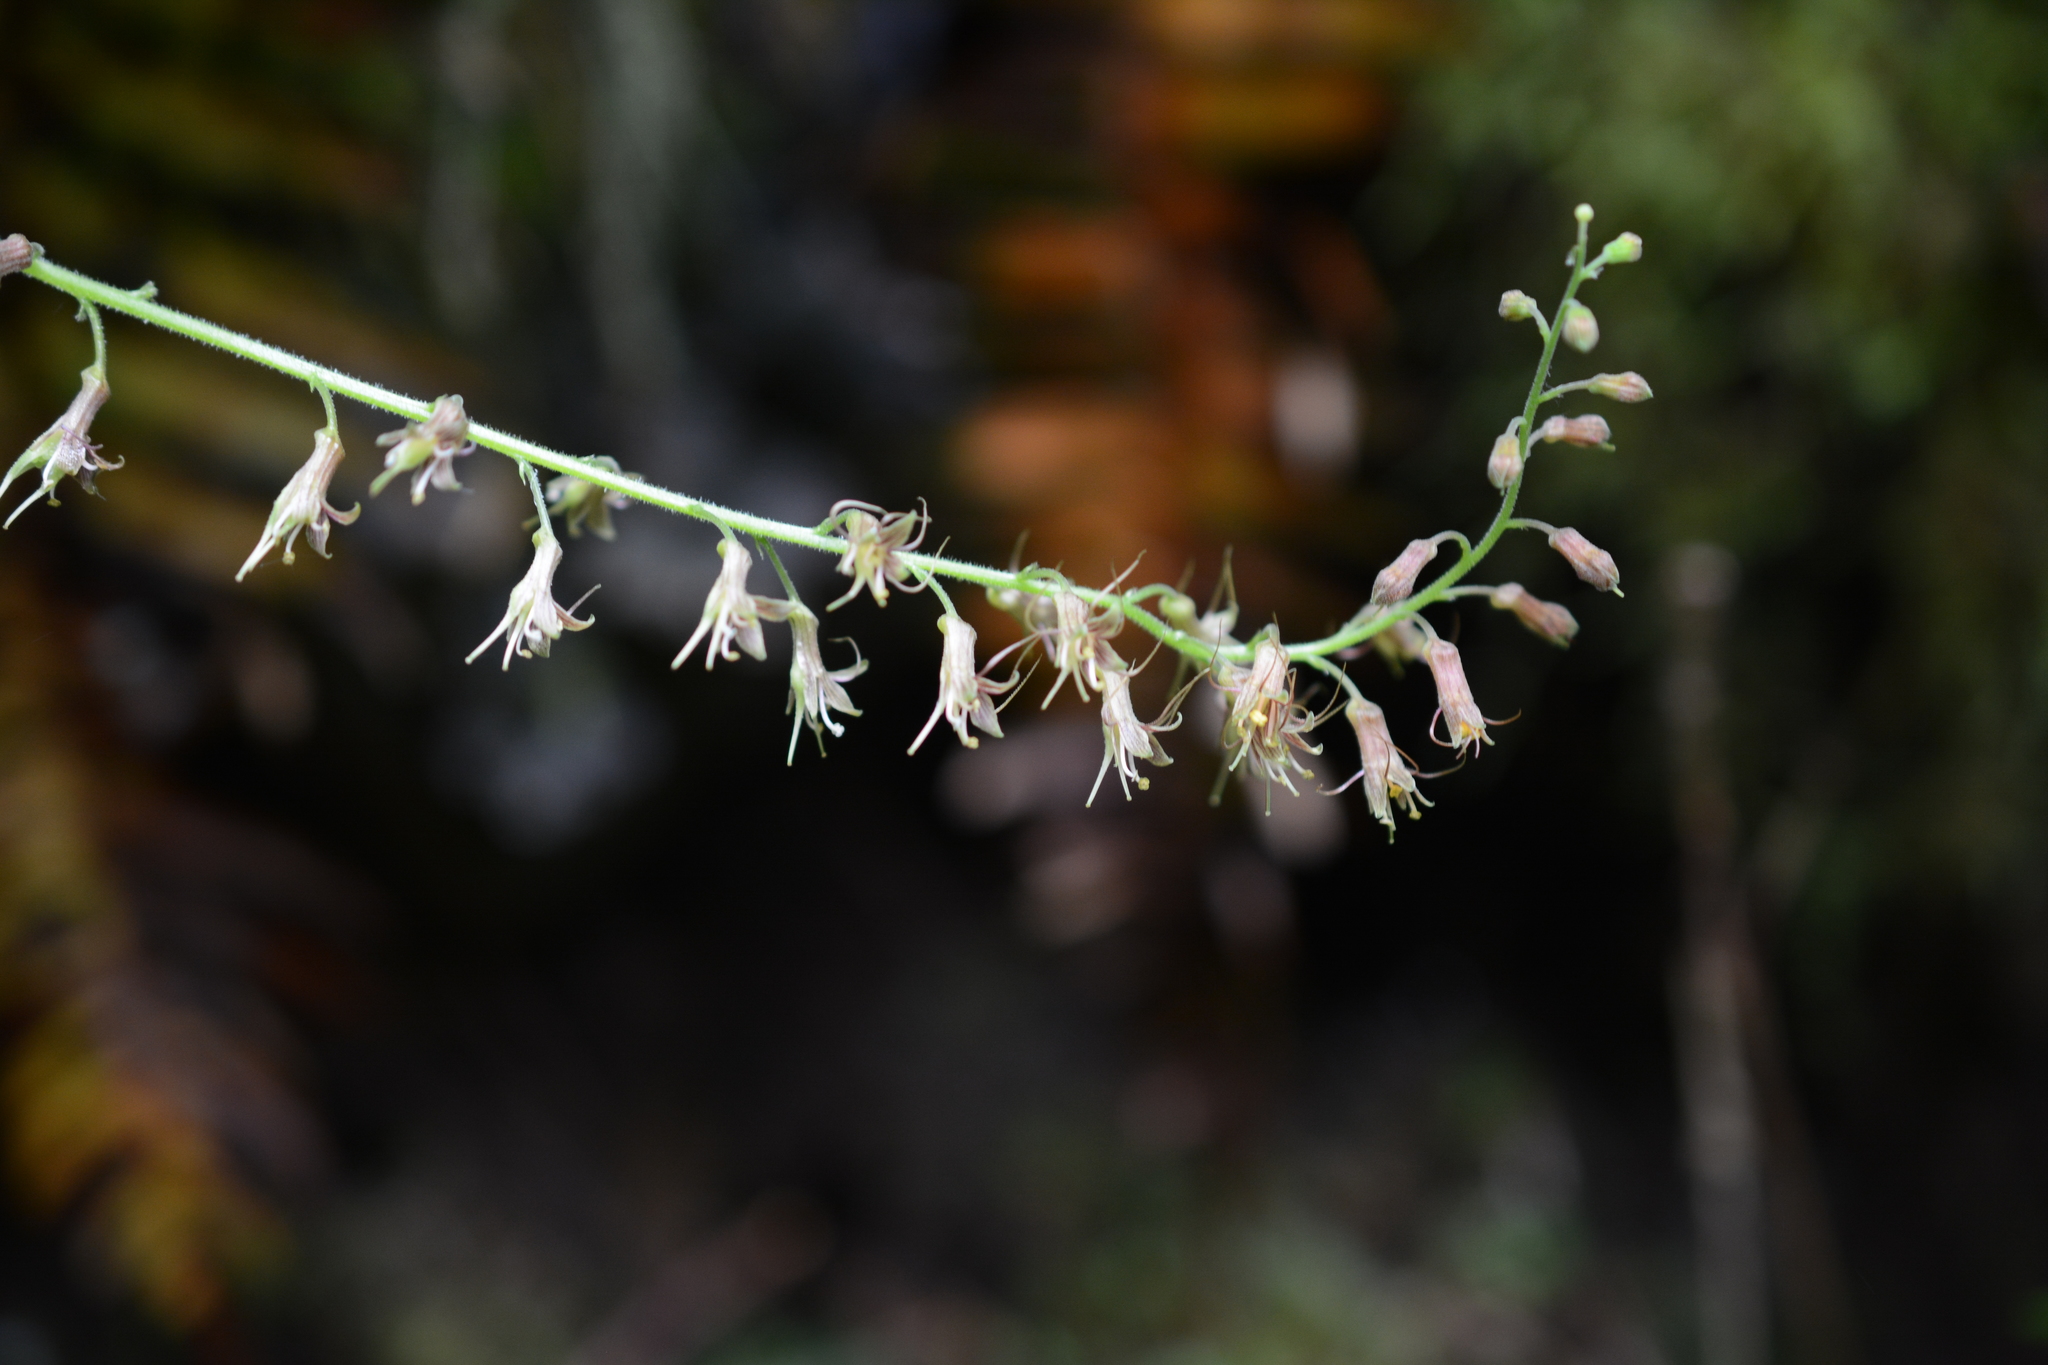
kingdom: Plantae
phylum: Tracheophyta
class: Magnoliopsida
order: Saxifragales
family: Saxifragaceae
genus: Tolmiea
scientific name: Tolmiea menziesii
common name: Pick-a-back-plant
